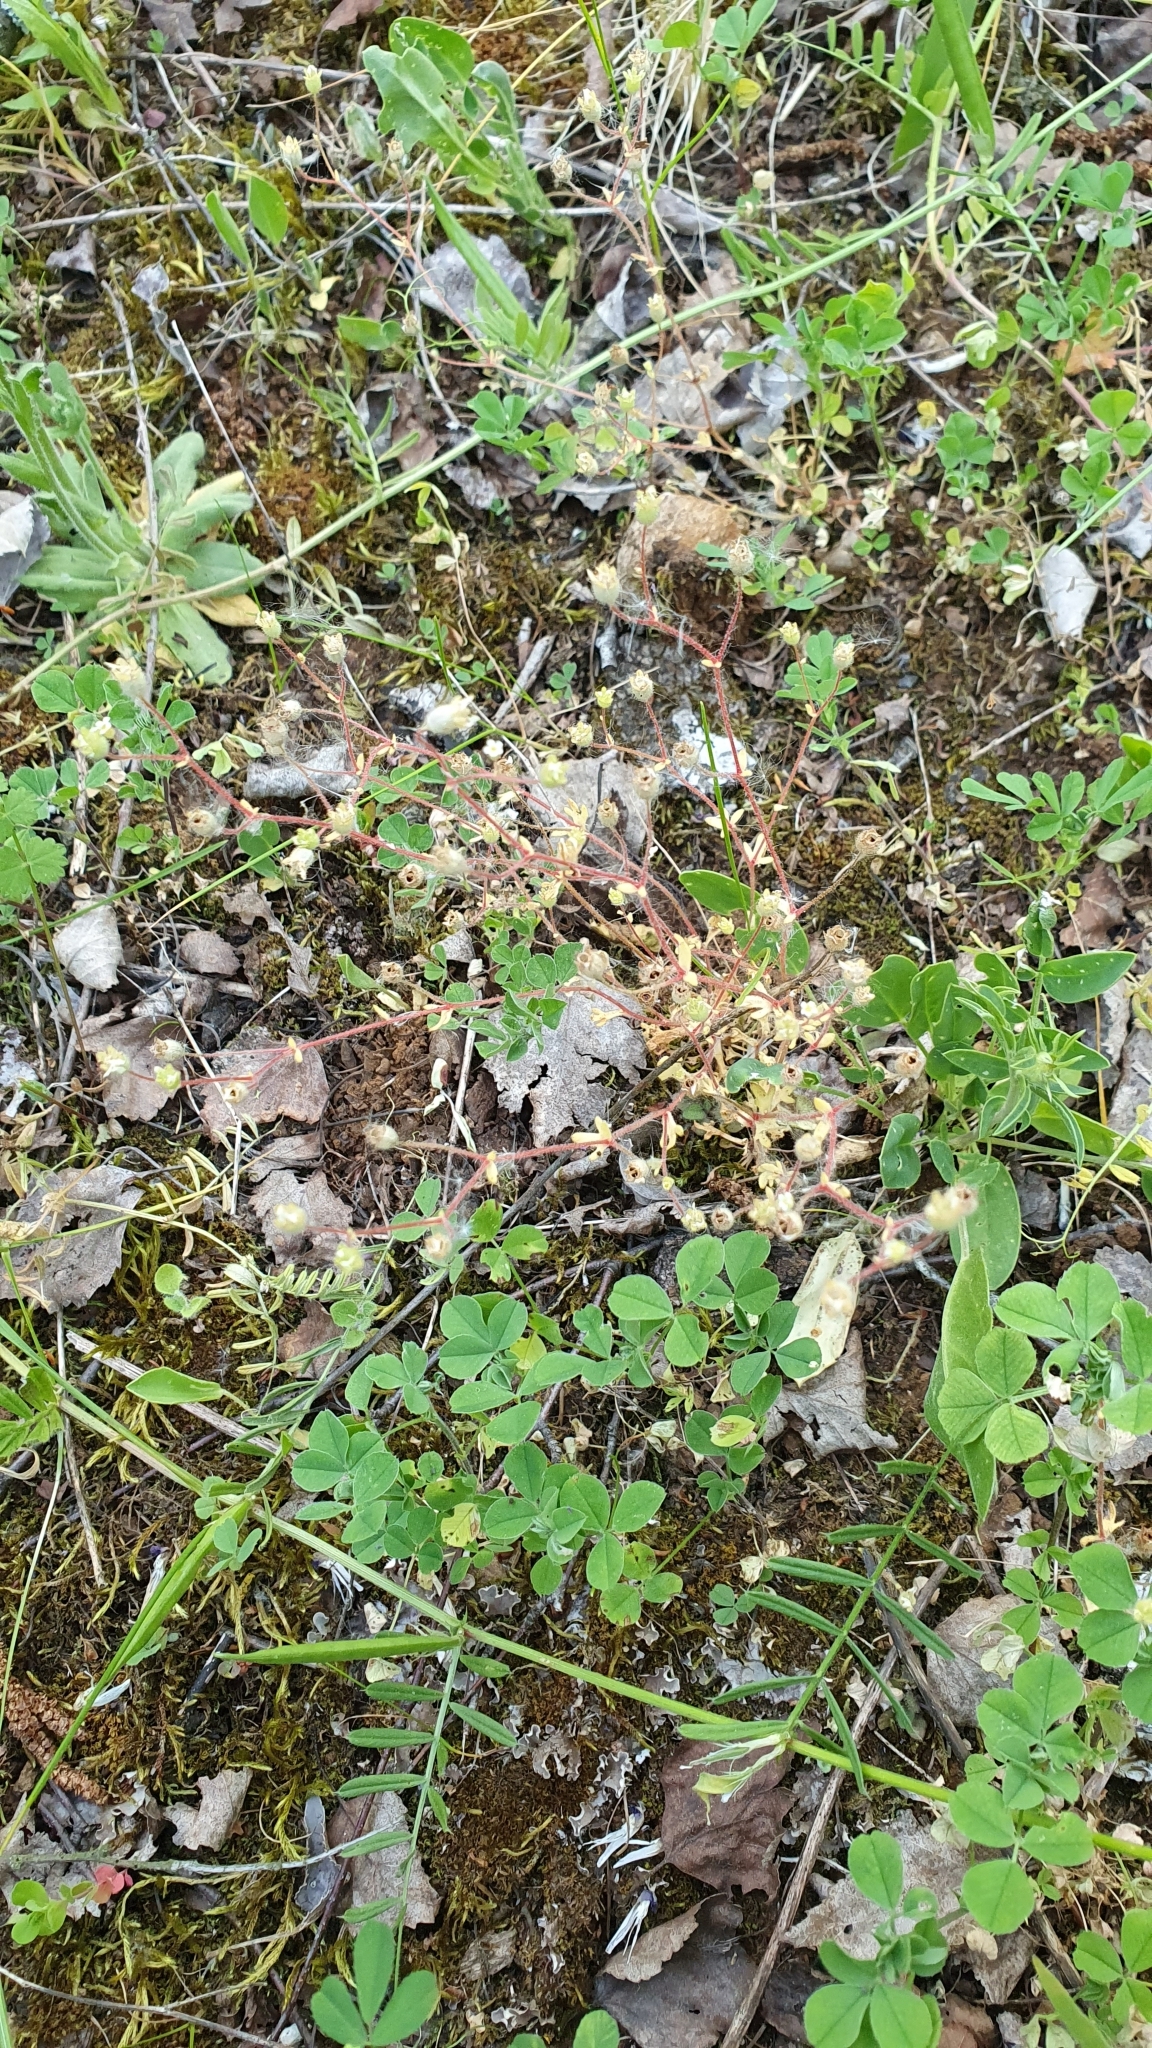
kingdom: Plantae
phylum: Tracheophyta
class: Magnoliopsida
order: Saxifragales
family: Saxifragaceae
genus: Saxifraga
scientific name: Saxifraga tridactylites
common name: Rue-leaved saxifrage
